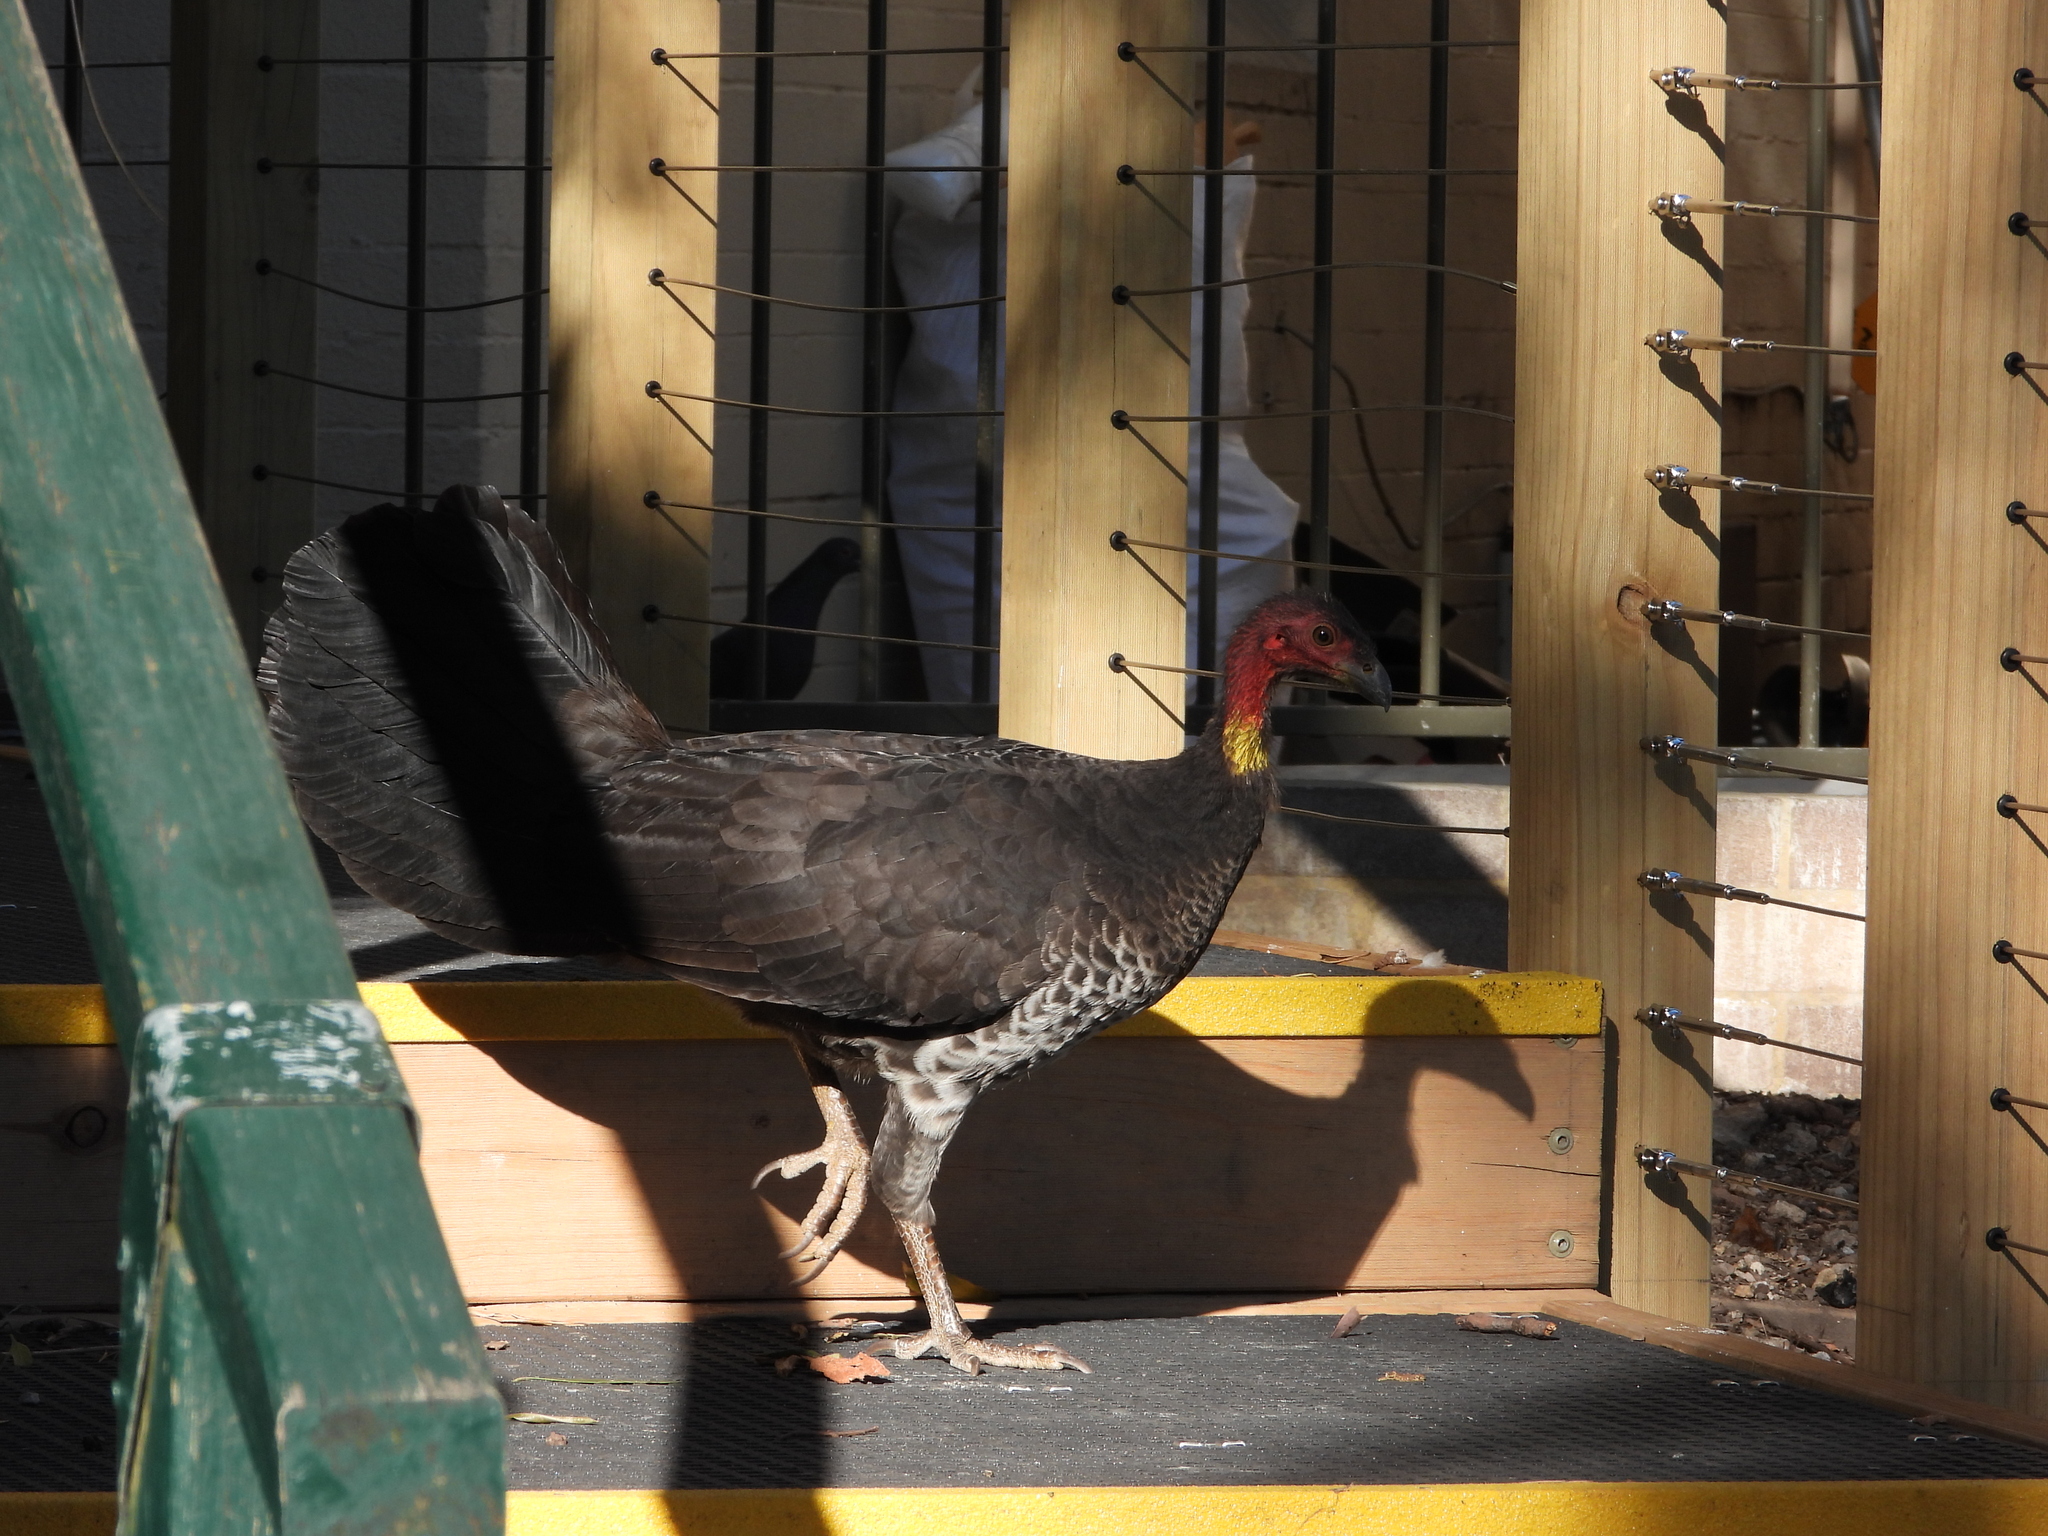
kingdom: Animalia
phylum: Chordata
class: Aves
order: Galliformes
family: Megapodiidae
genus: Alectura
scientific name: Alectura lathami
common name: Australian brushturkey
